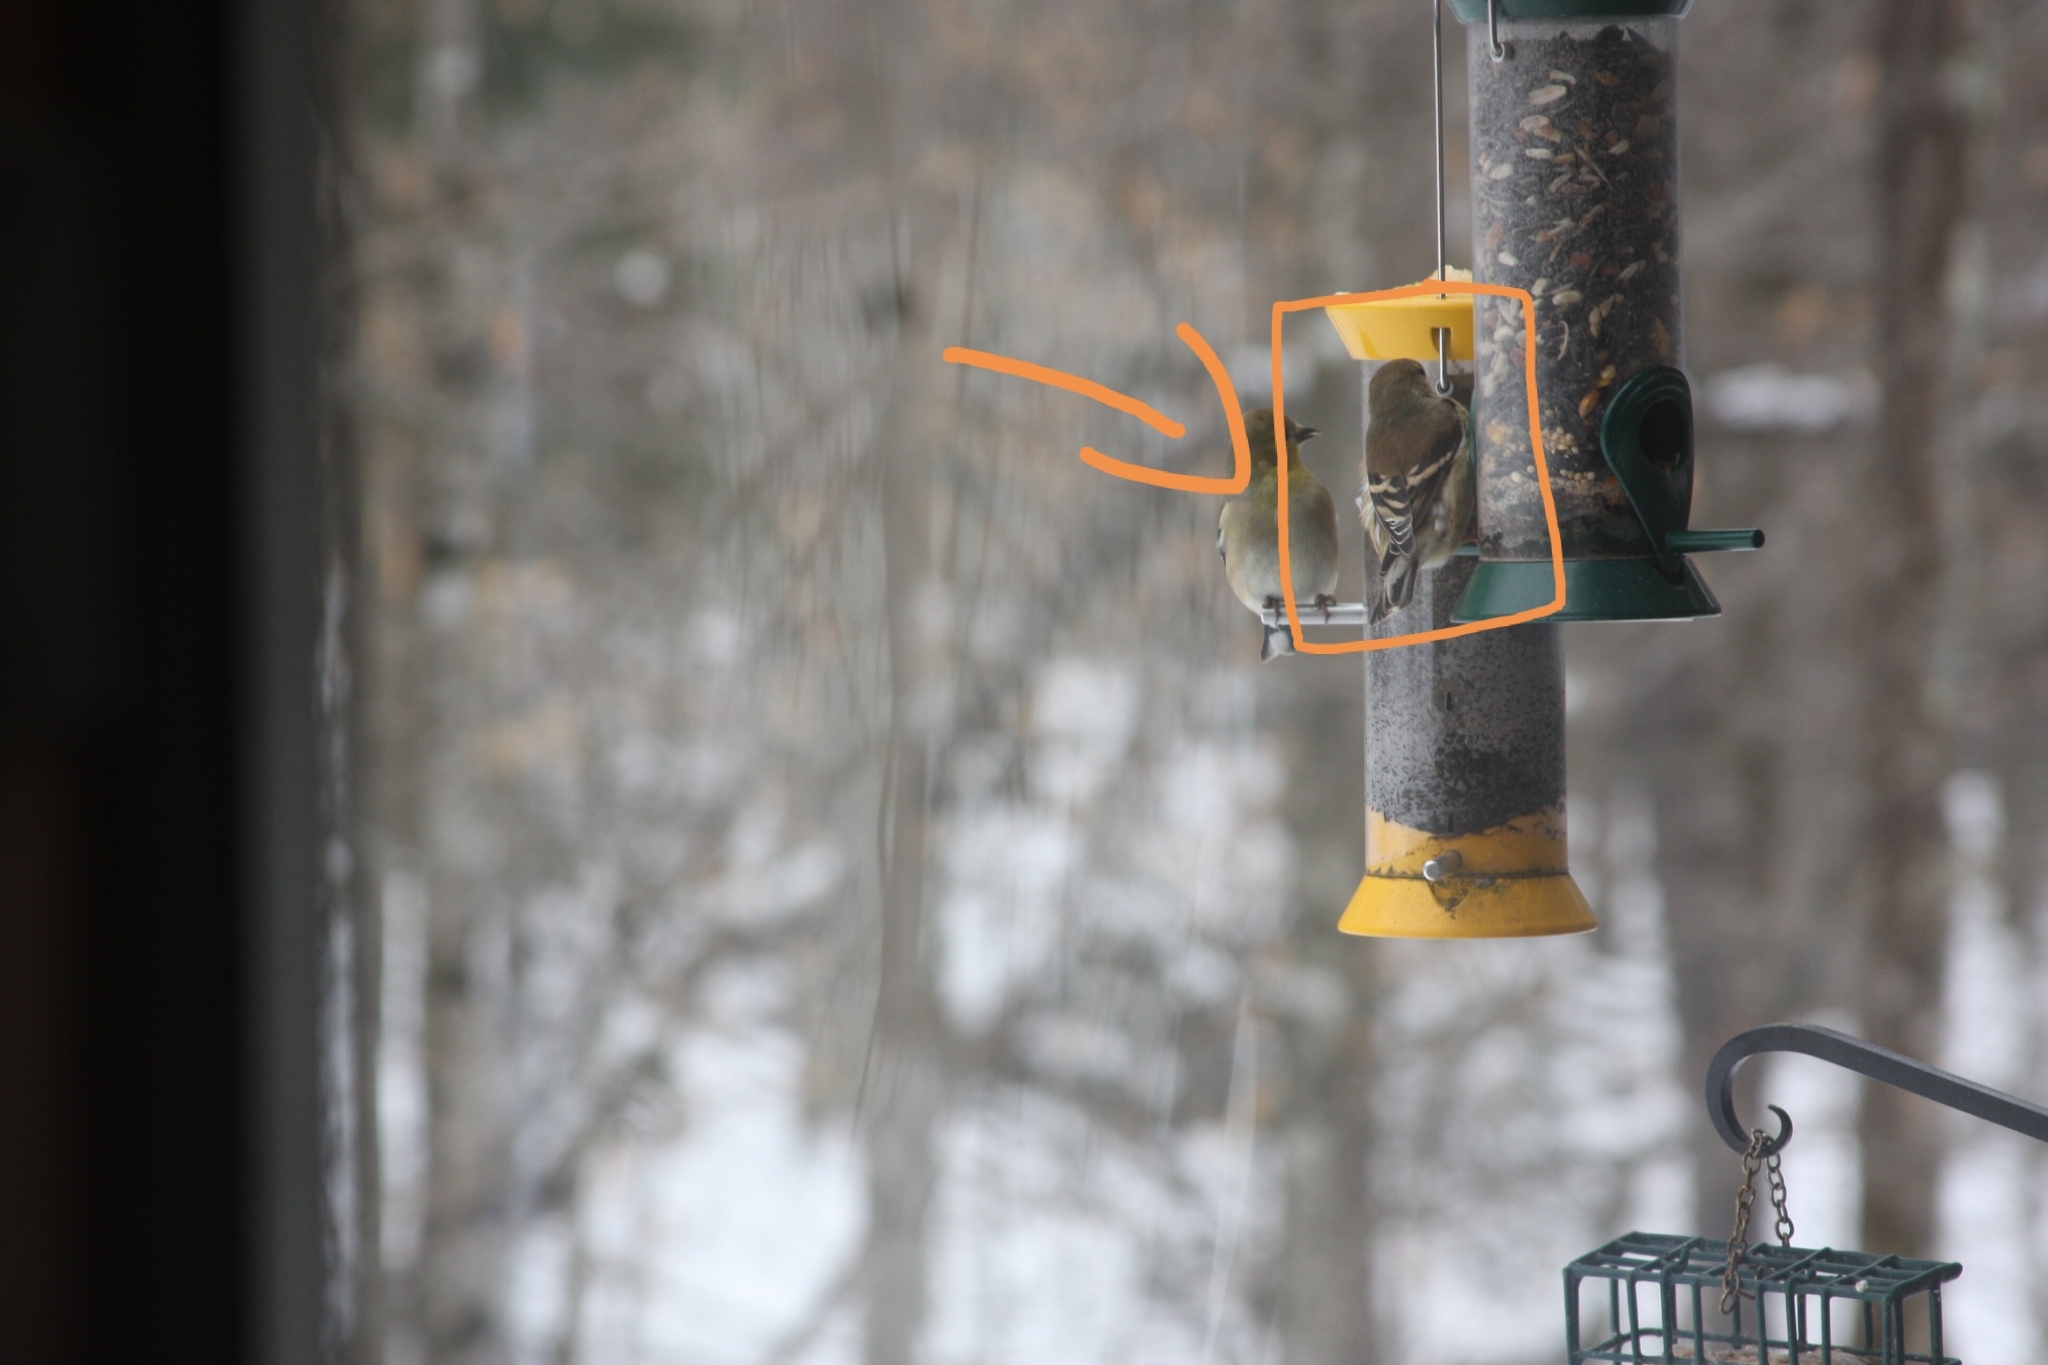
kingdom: Animalia
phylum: Chordata
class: Aves
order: Passeriformes
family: Fringillidae
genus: Spinus
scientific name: Spinus tristis
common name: American goldfinch
